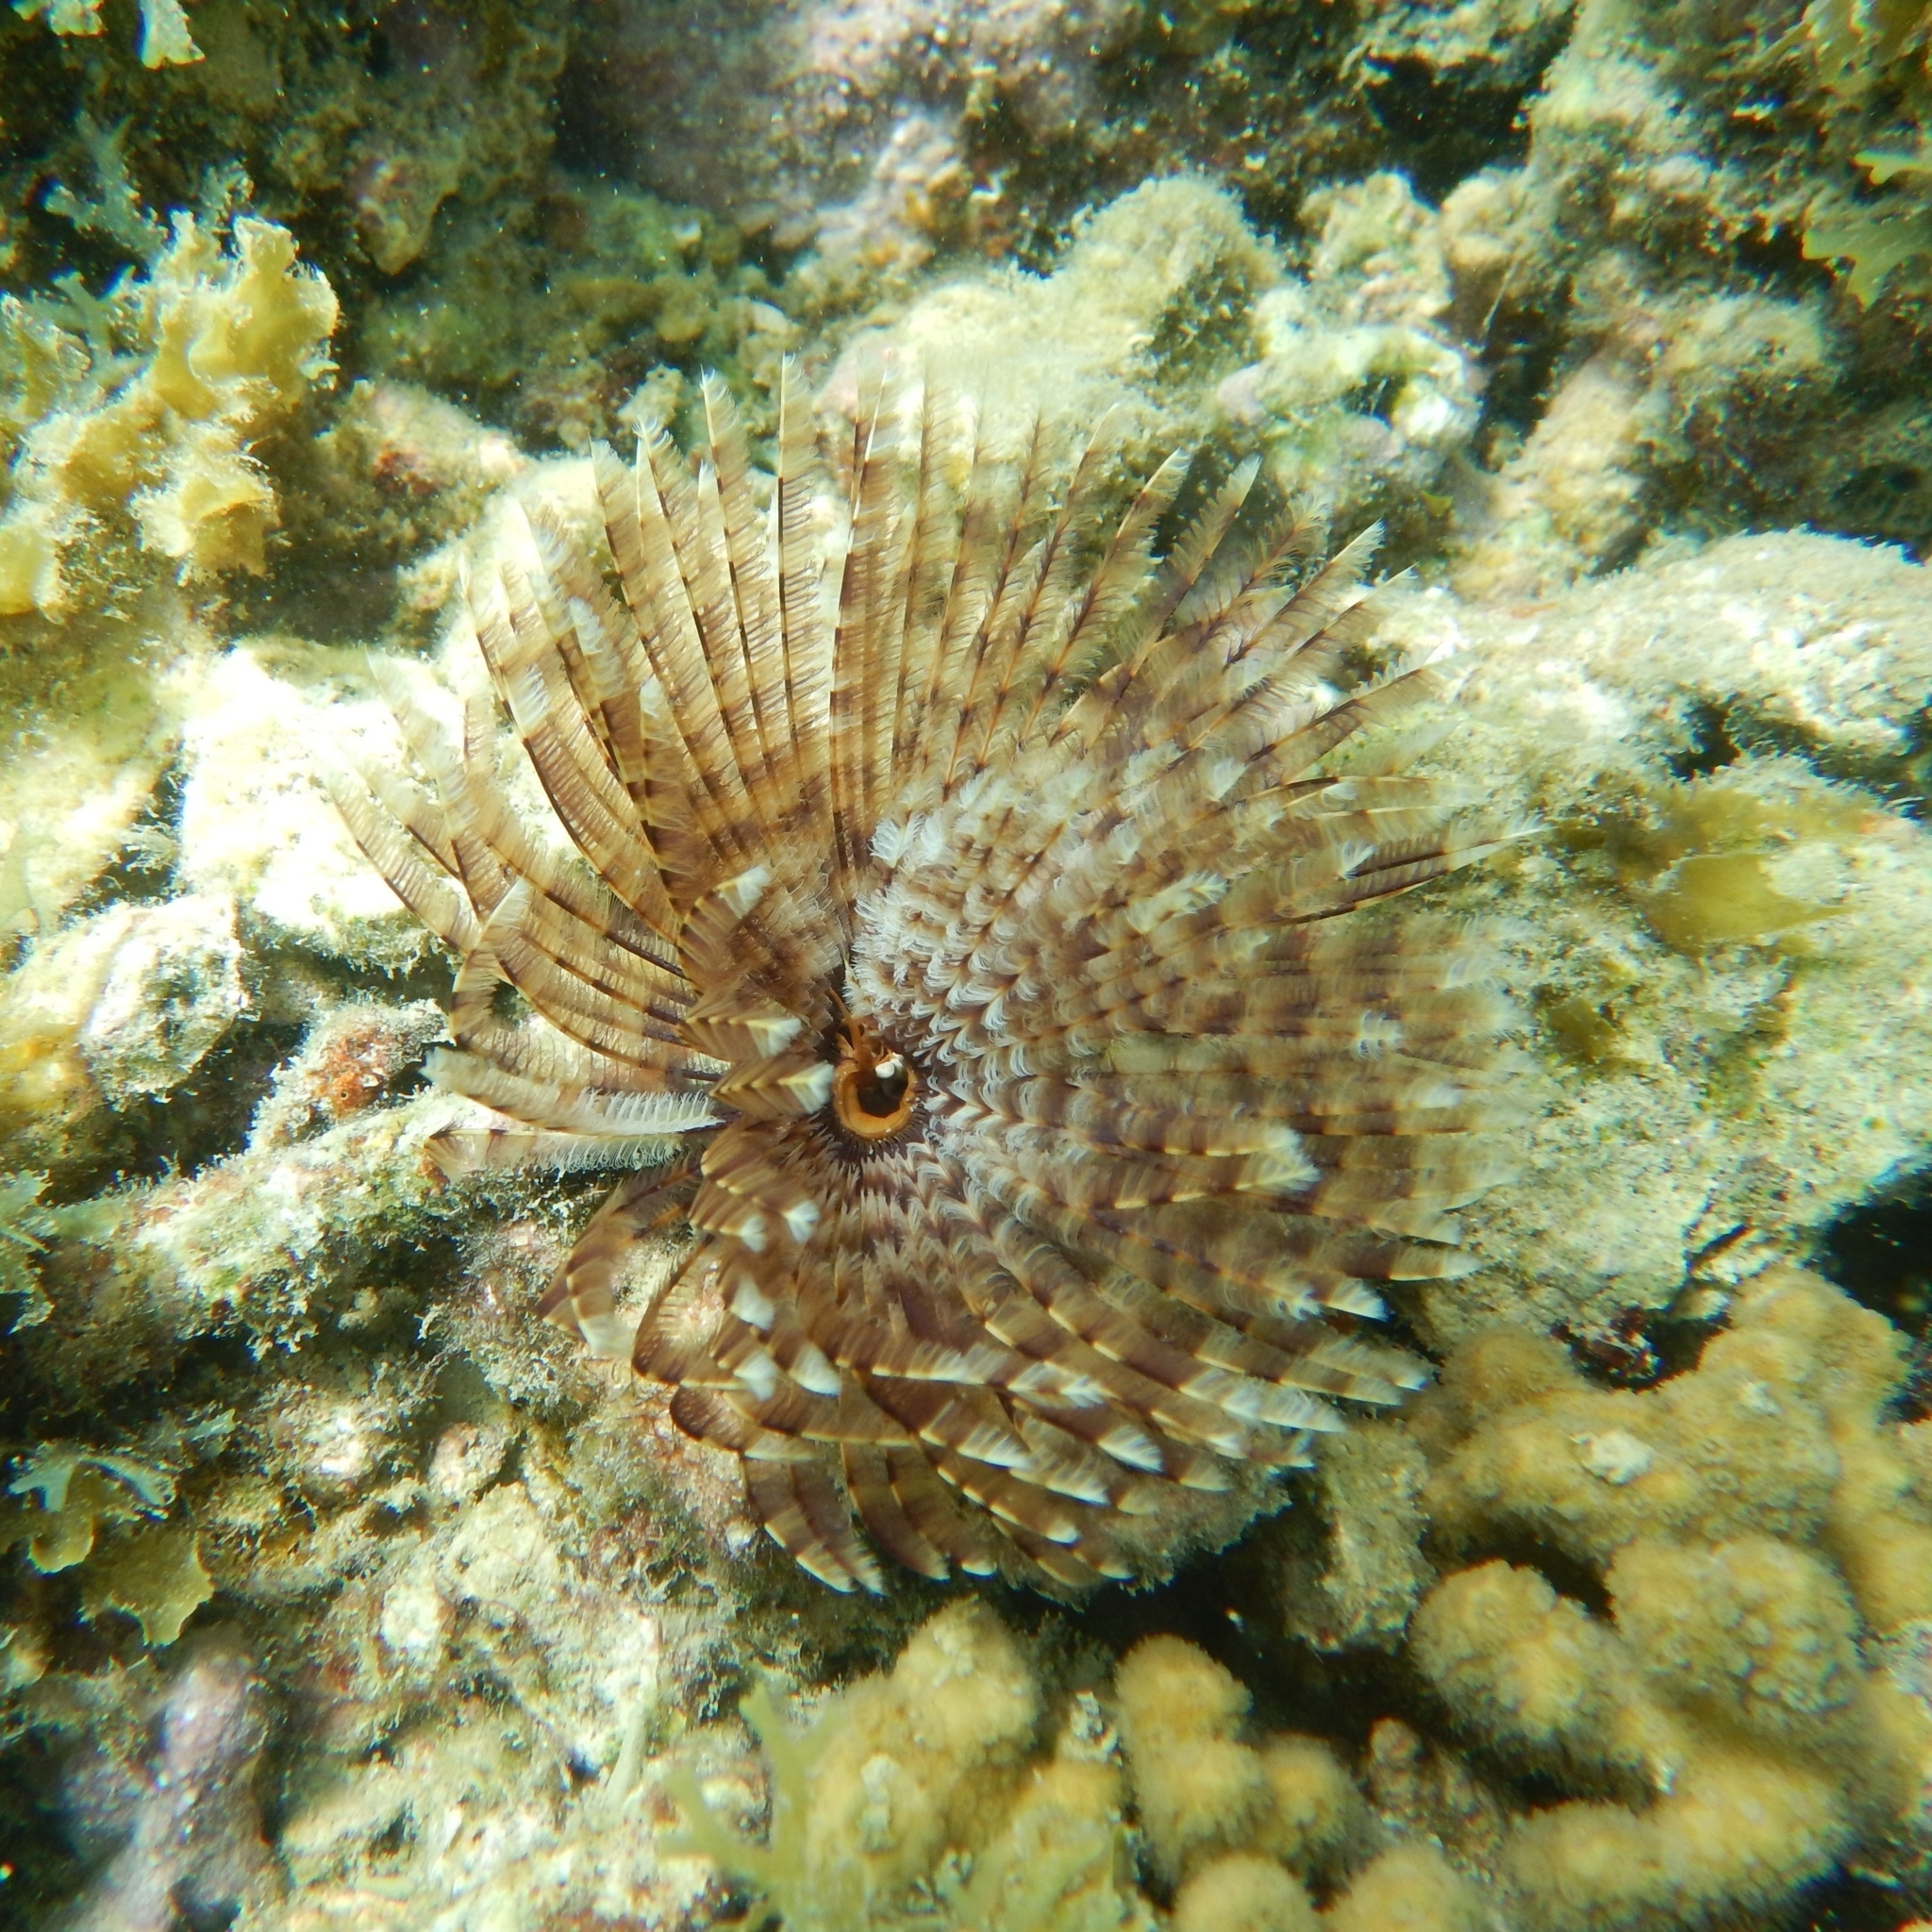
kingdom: Animalia
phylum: Annelida
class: Polychaeta
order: Sabellida
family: Sabellidae
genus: Sabellastarte
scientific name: Sabellastarte magnifica
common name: Giant feather-duster worm
